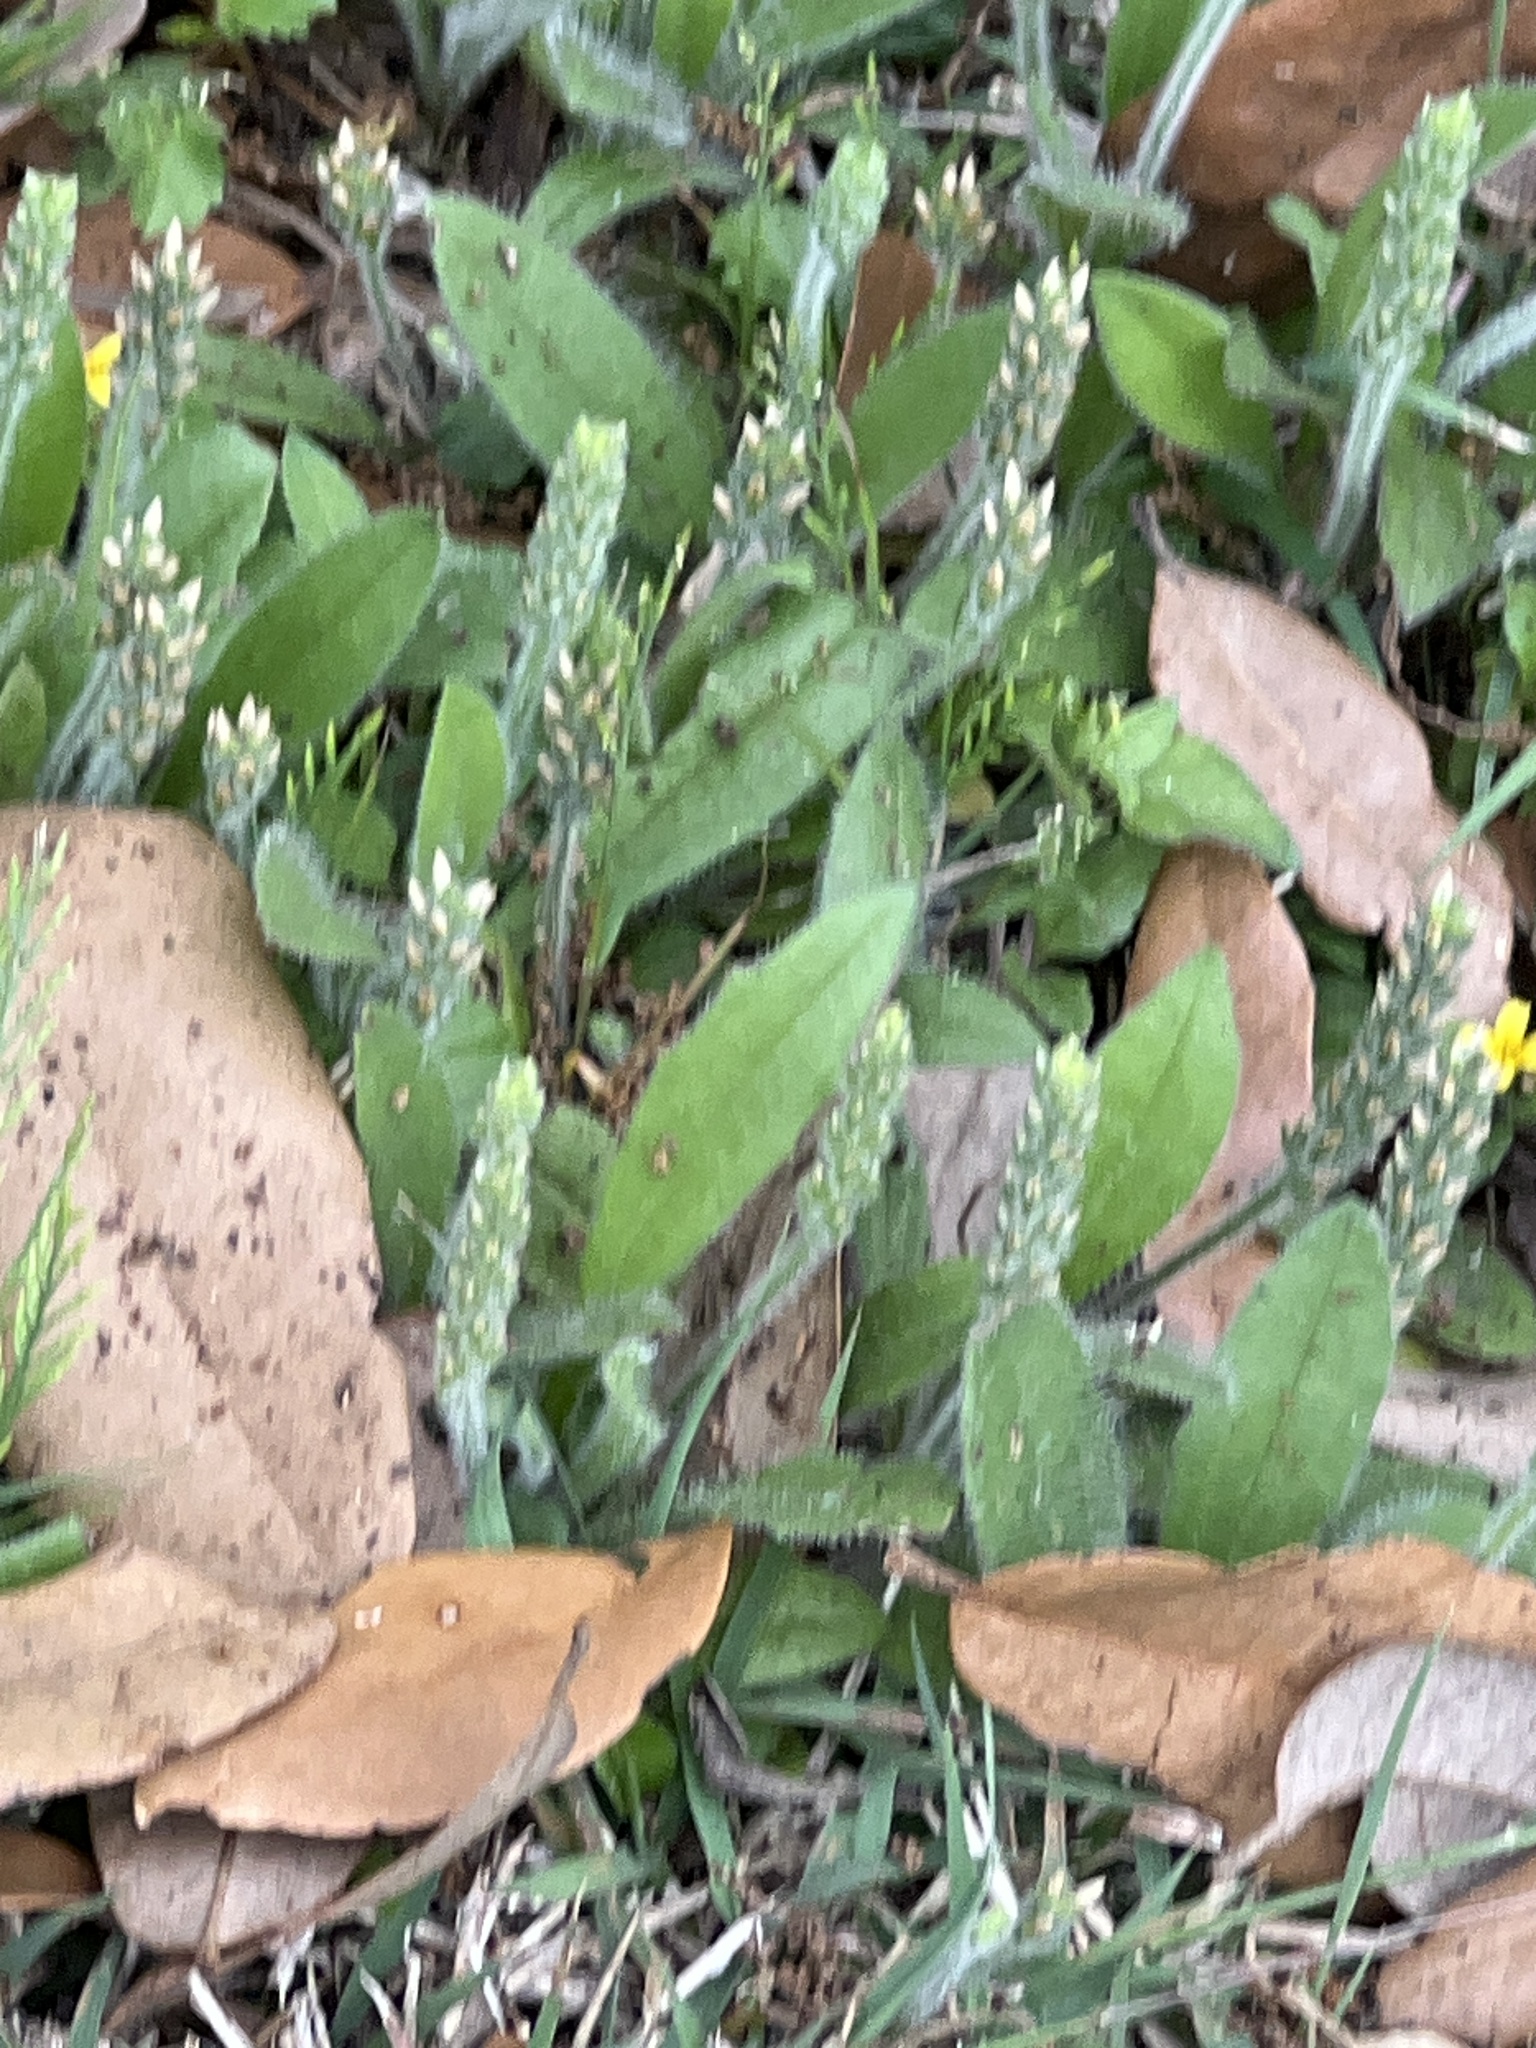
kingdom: Plantae
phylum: Tracheophyta
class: Magnoliopsida
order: Lamiales
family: Plantaginaceae
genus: Plantago
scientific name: Plantago rhodosperma
